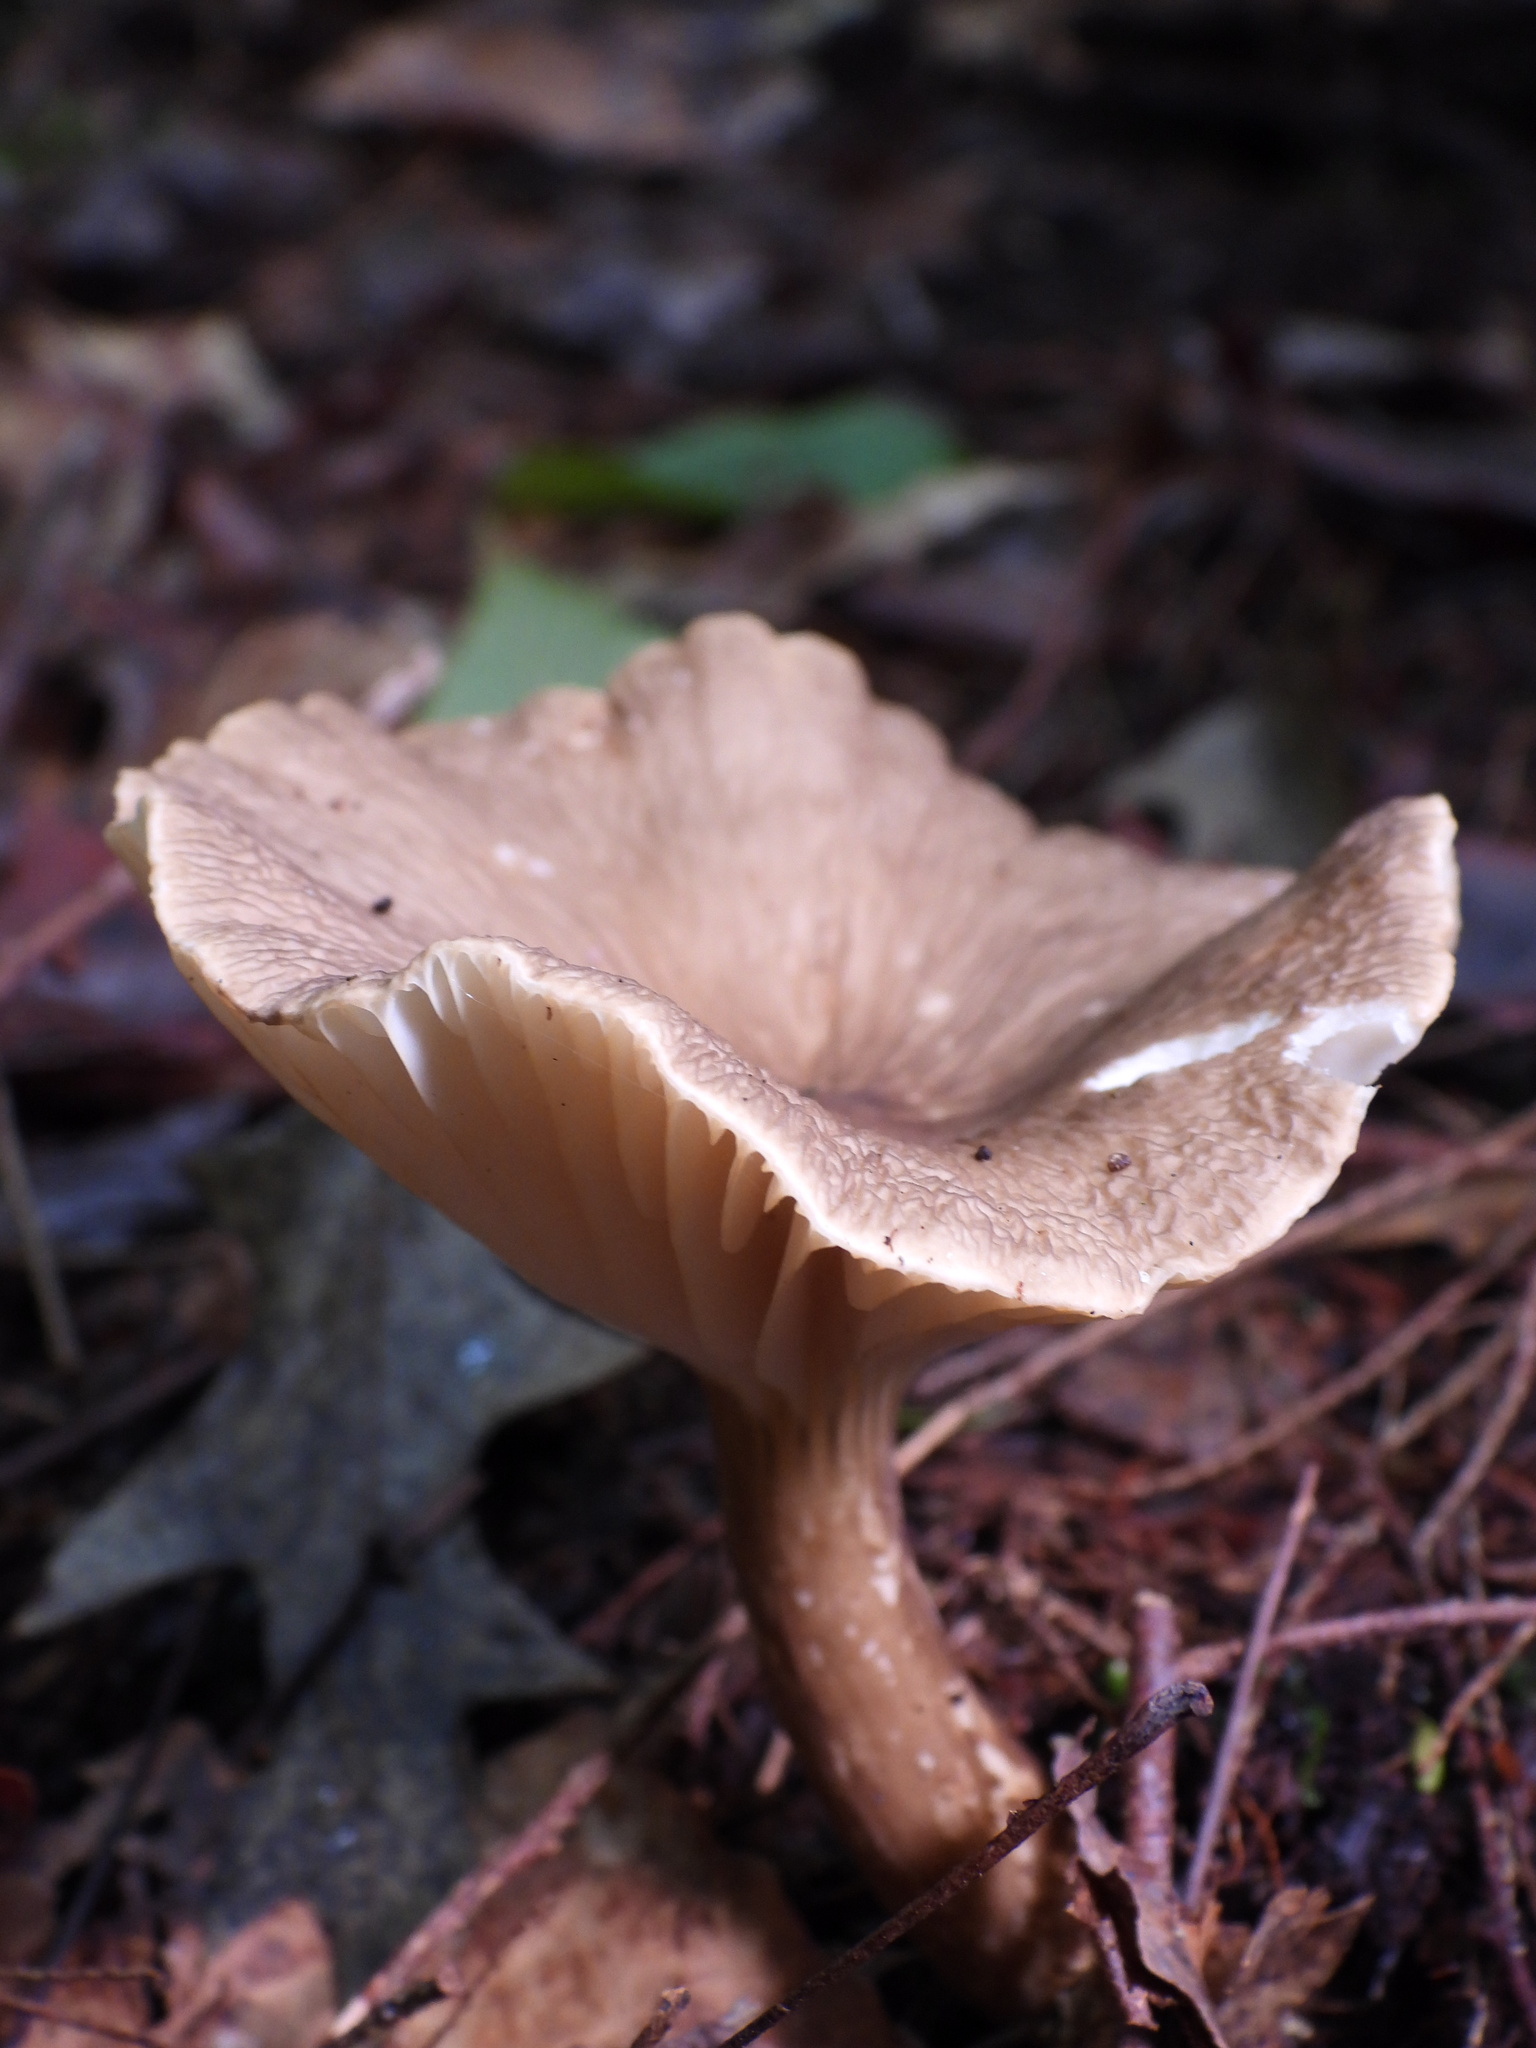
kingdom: Fungi
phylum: Basidiomycota
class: Agaricomycetes
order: Russulales
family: Russulaceae
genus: Lactarius
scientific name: Lactarius gerardii
